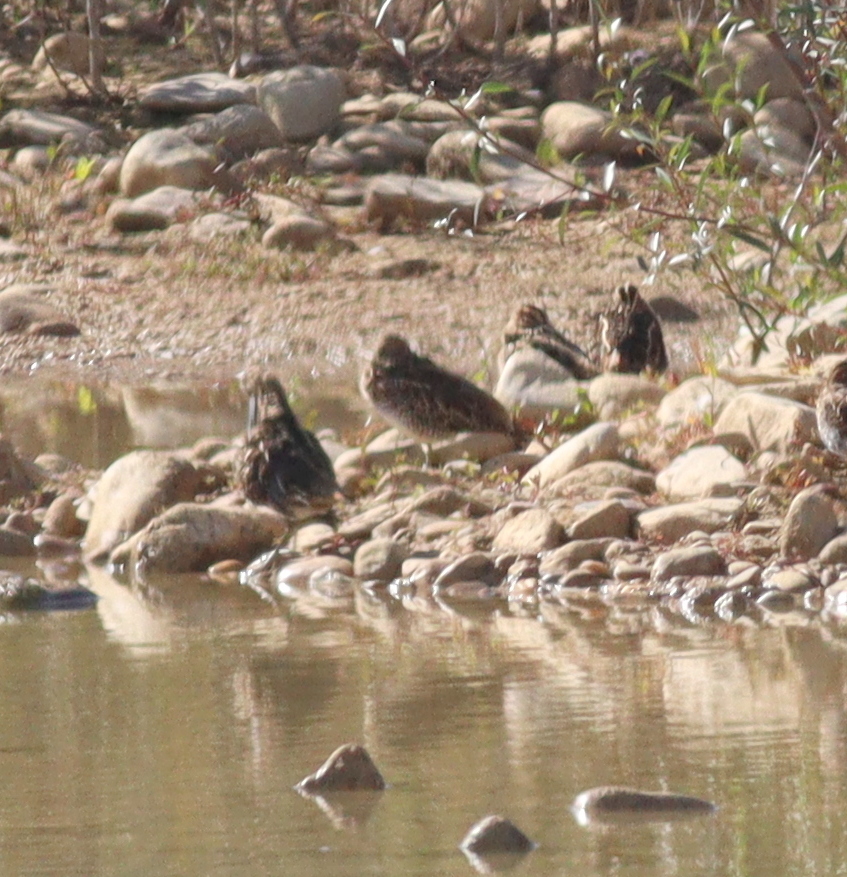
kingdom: Animalia
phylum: Chordata
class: Aves
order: Charadriiformes
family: Scolopacidae
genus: Gallinago
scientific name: Gallinago gallinago
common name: Common snipe
